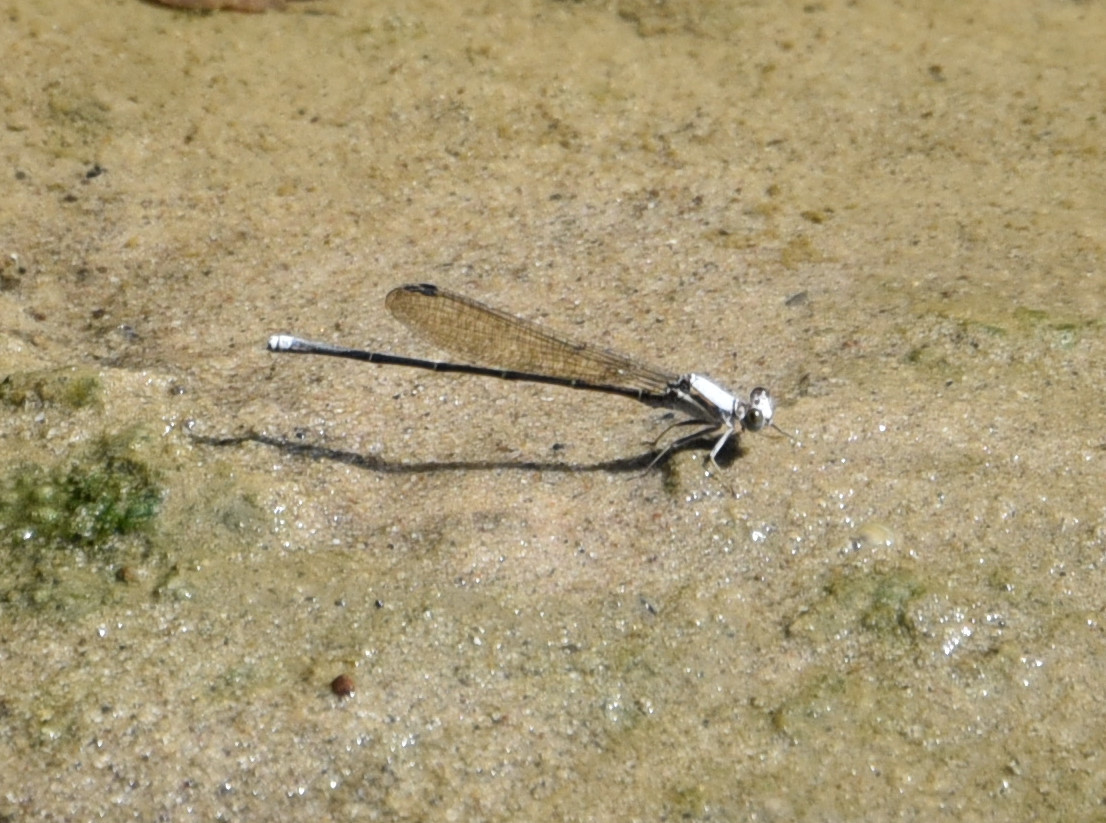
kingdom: Animalia
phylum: Arthropoda
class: Insecta
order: Odonata
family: Coenagrionidae
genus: Argia
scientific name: Argia moesta
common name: Powdered dancer
